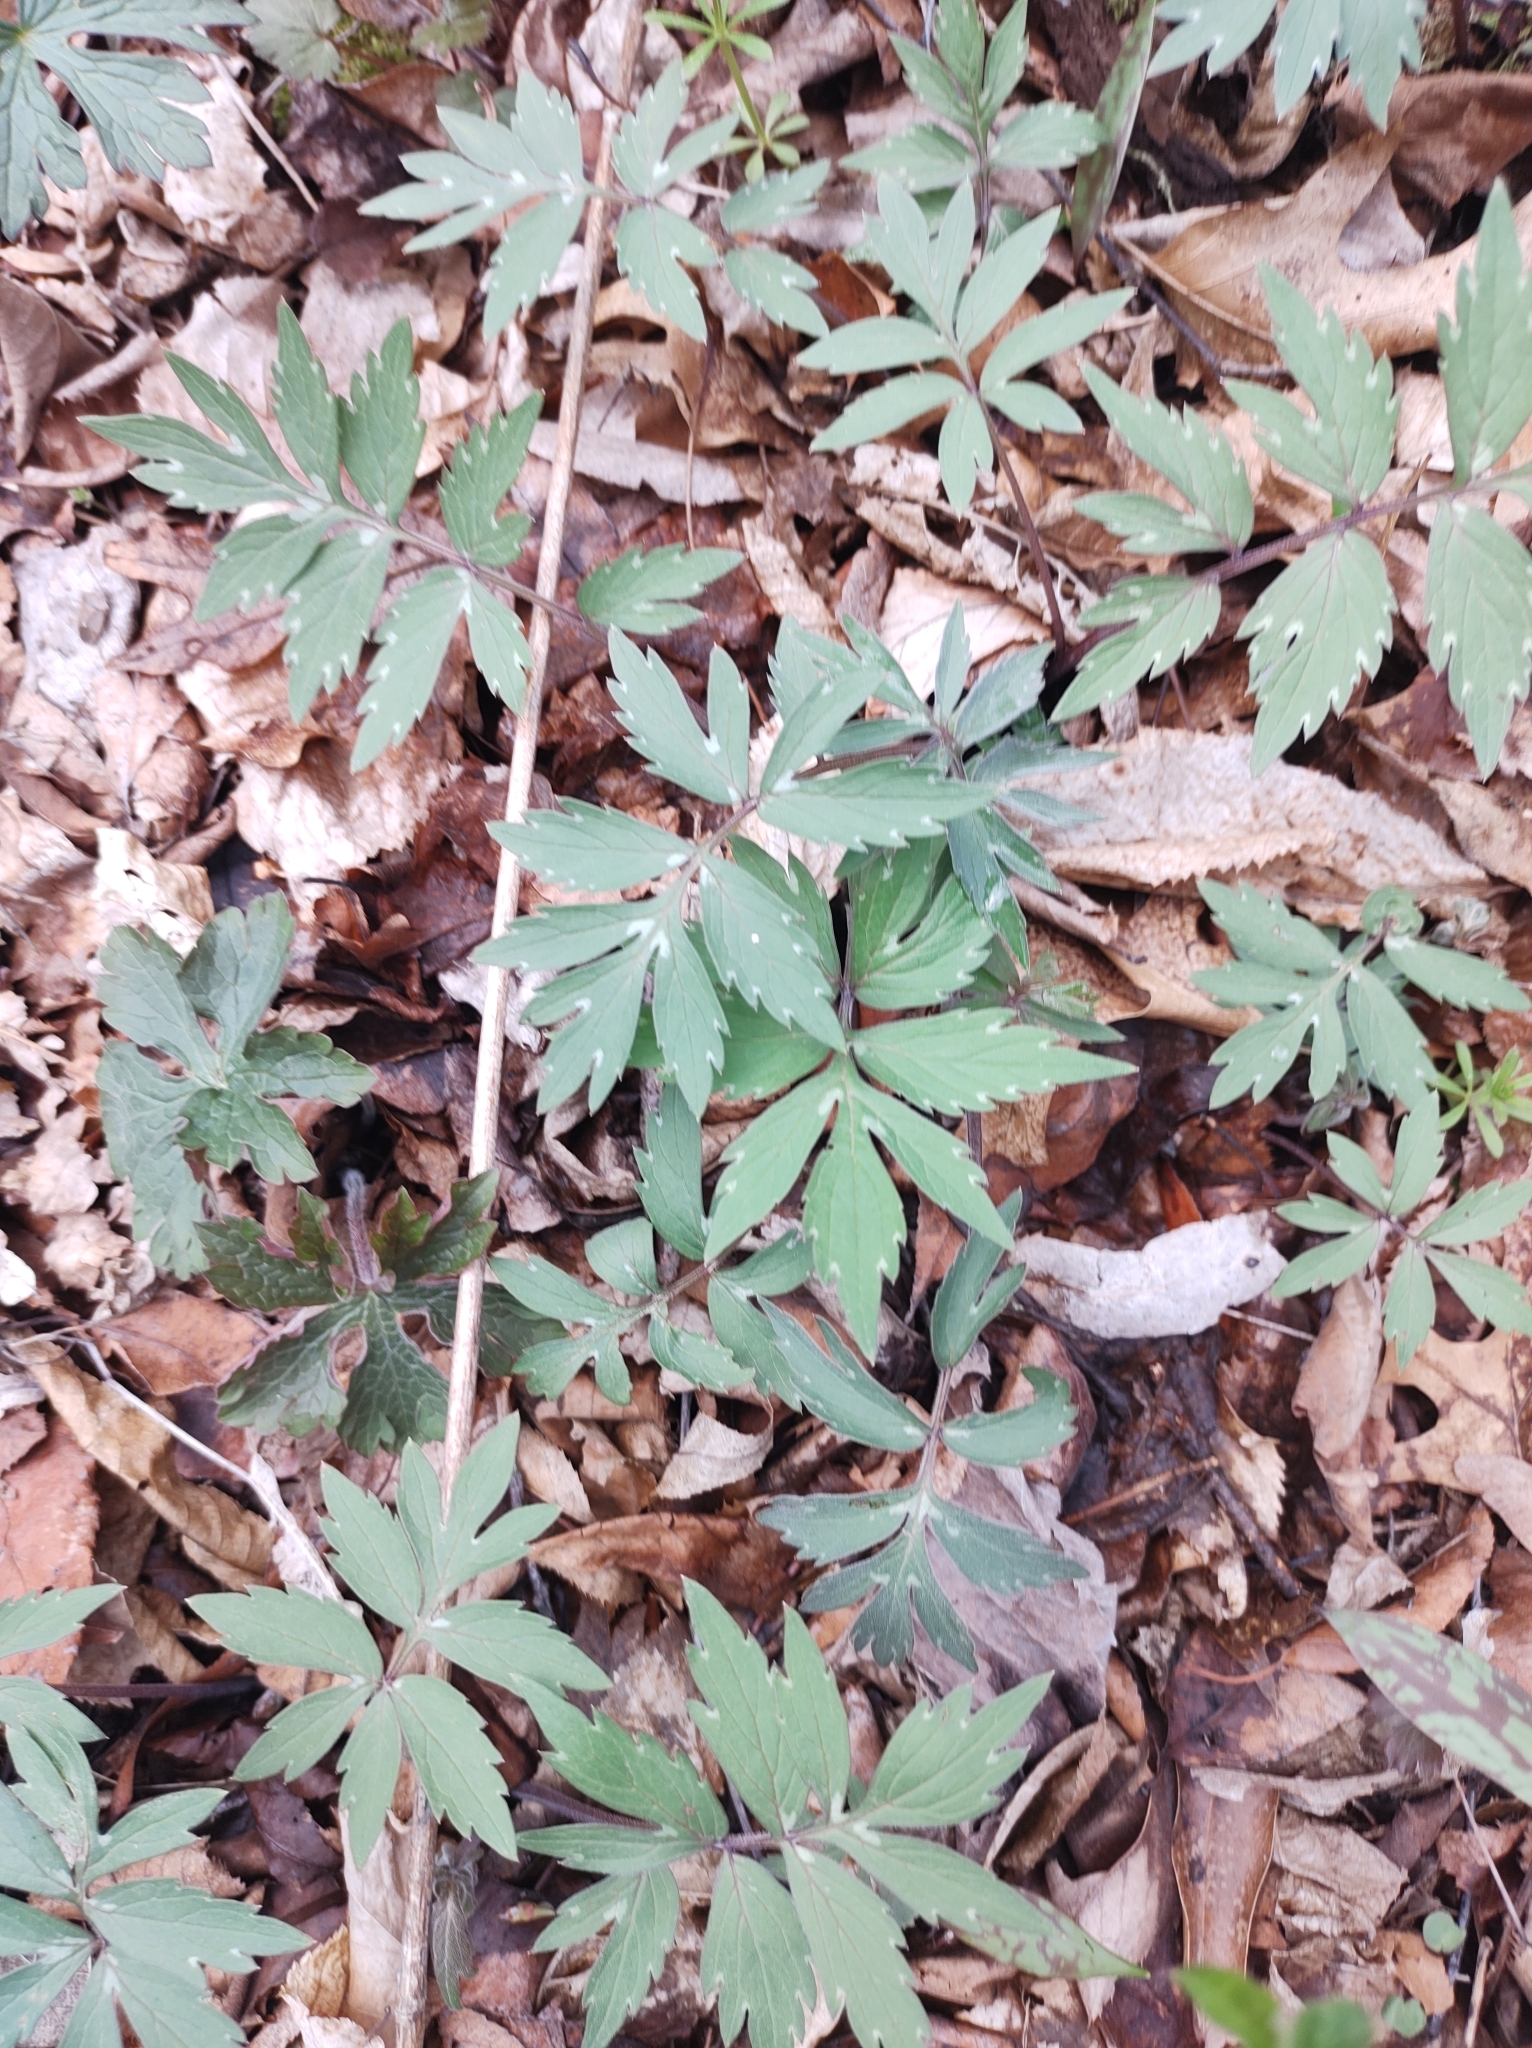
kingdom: Plantae
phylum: Tracheophyta
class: Magnoliopsida
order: Boraginales
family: Hydrophyllaceae
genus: Hydrophyllum
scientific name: Hydrophyllum virginianum
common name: Virginia waterleaf
